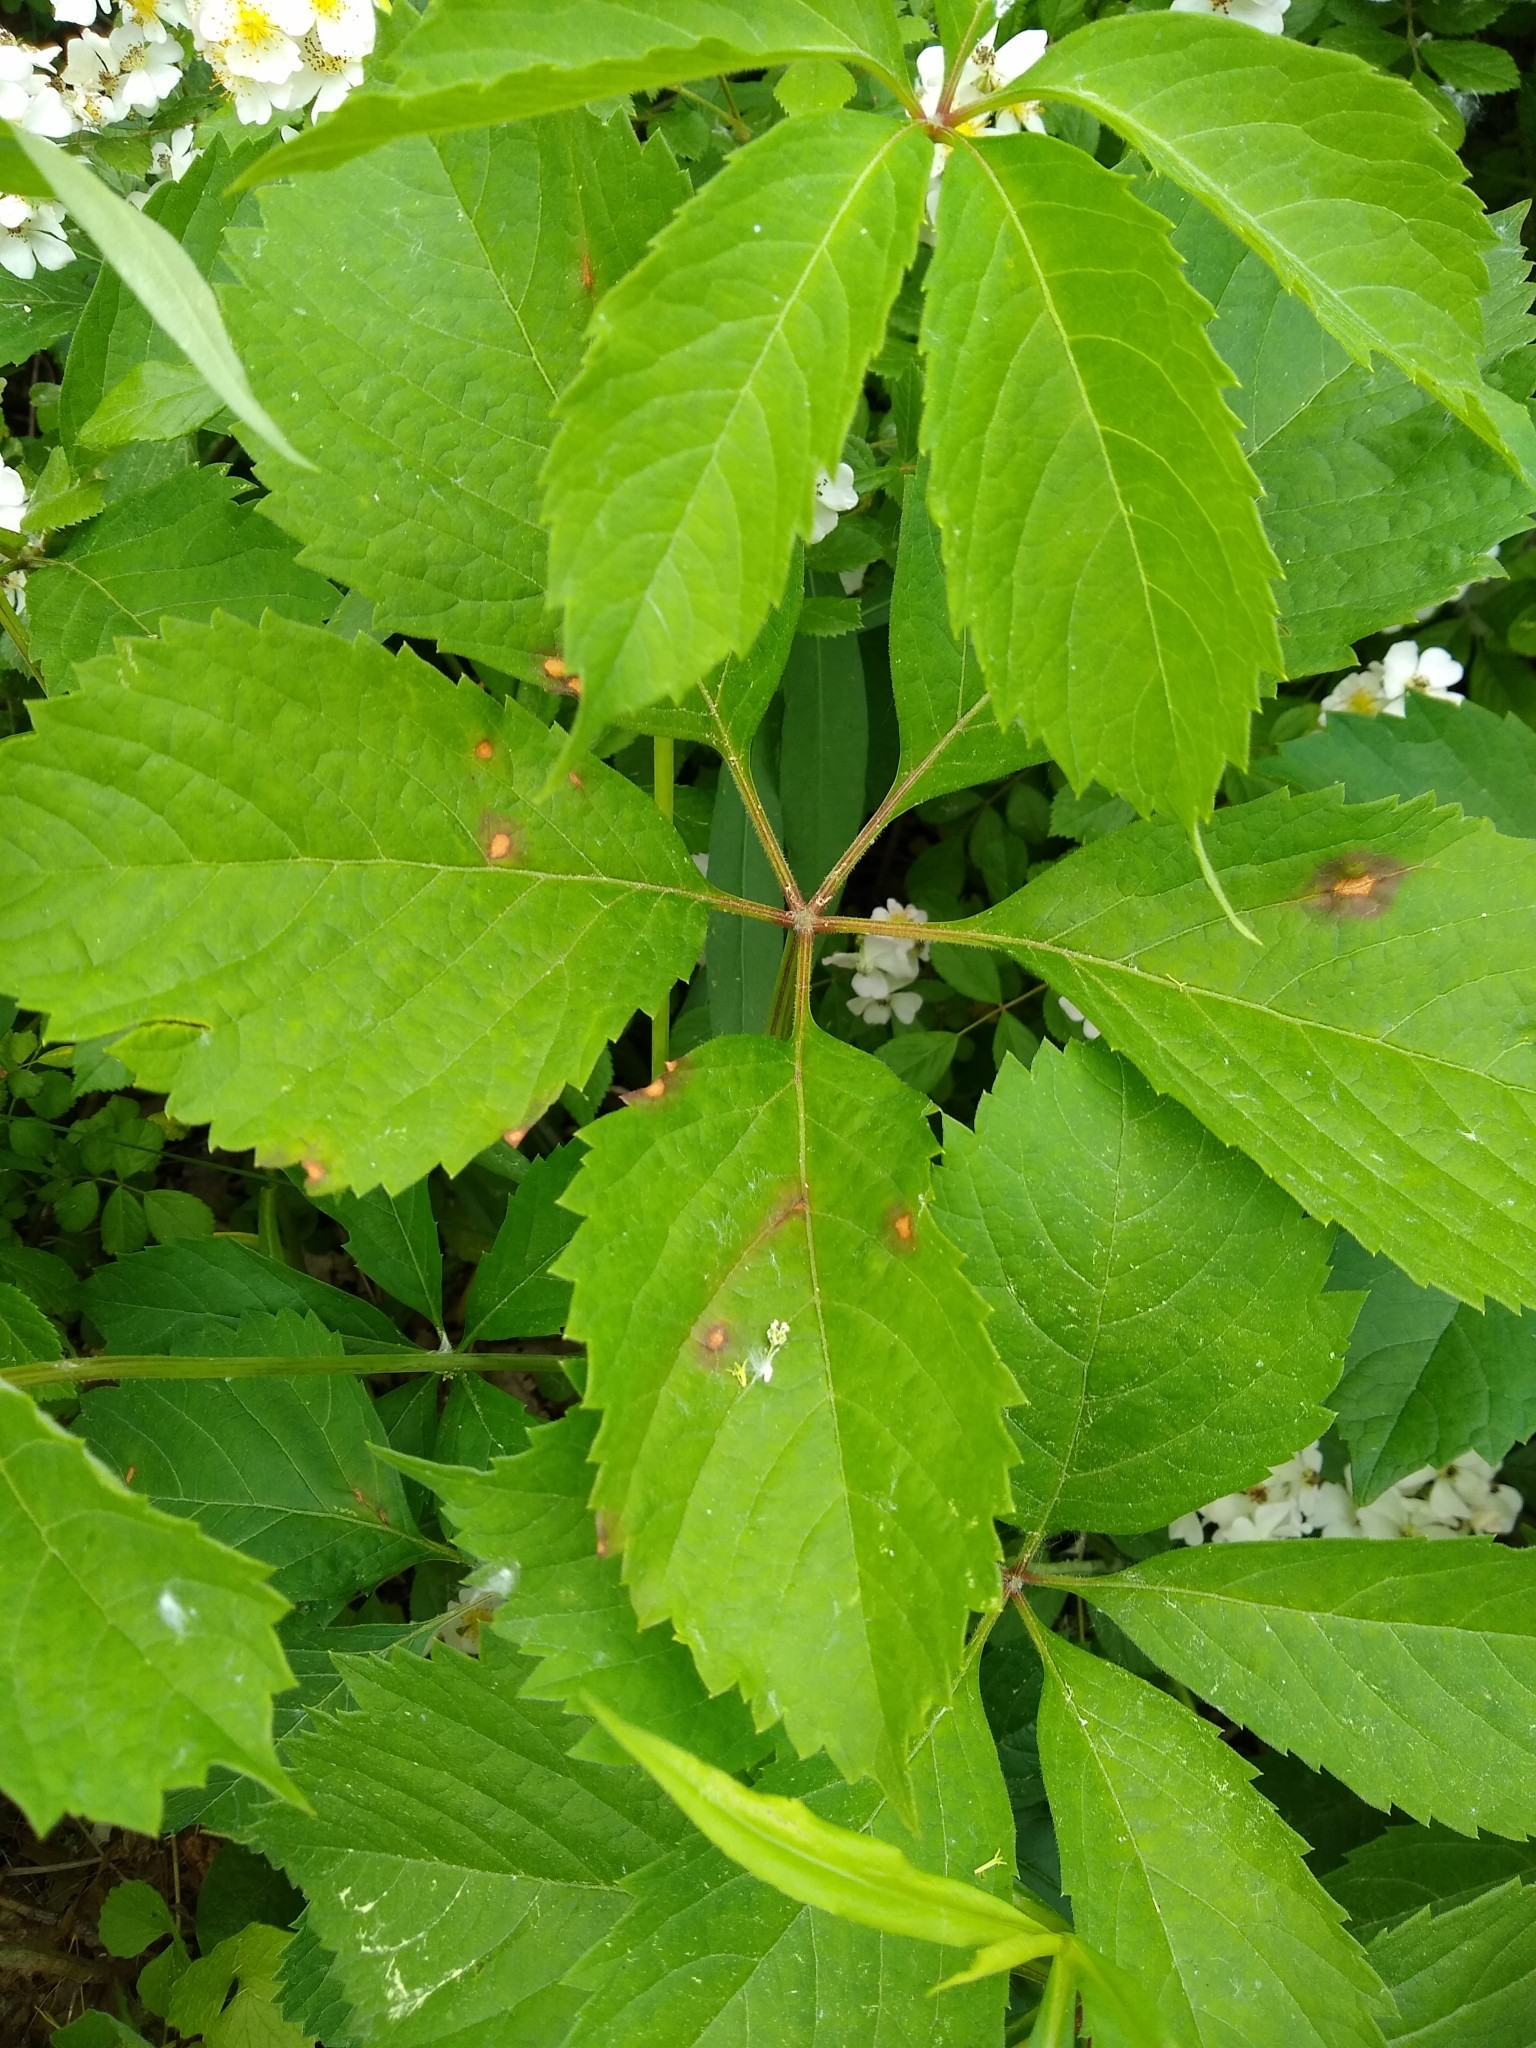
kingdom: Plantae
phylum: Tracheophyta
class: Magnoliopsida
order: Vitales
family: Vitaceae
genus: Parthenocissus
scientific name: Parthenocissus inserta
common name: False virginia-creeper
